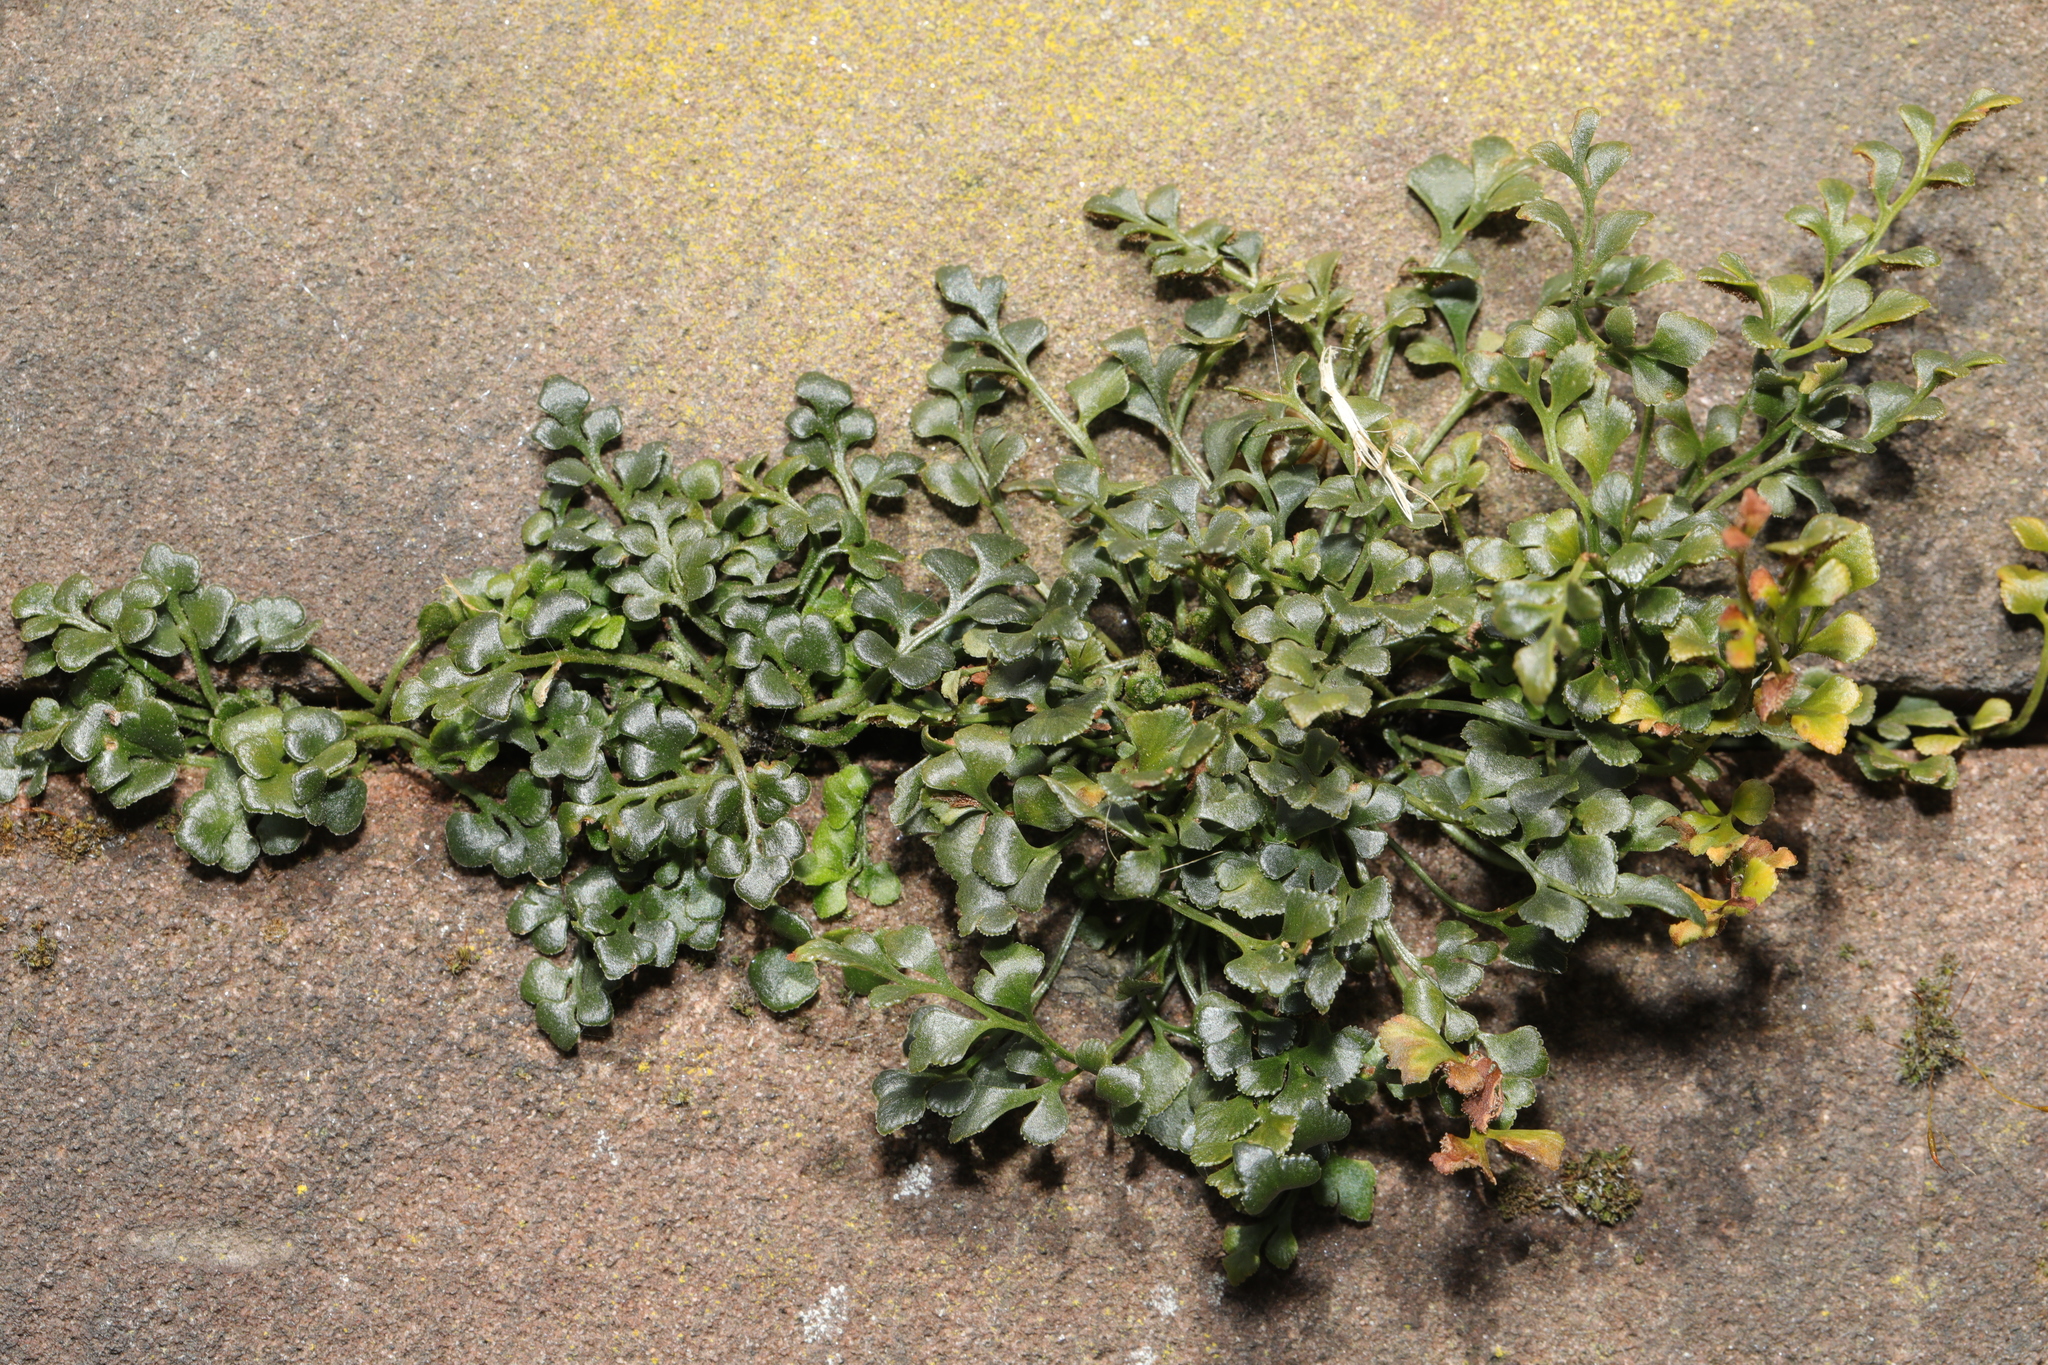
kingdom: Plantae
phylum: Tracheophyta
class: Polypodiopsida
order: Polypodiales
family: Aspleniaceae
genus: Asplenium
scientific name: Asplenium ruta-muraria
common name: Wall-rue
